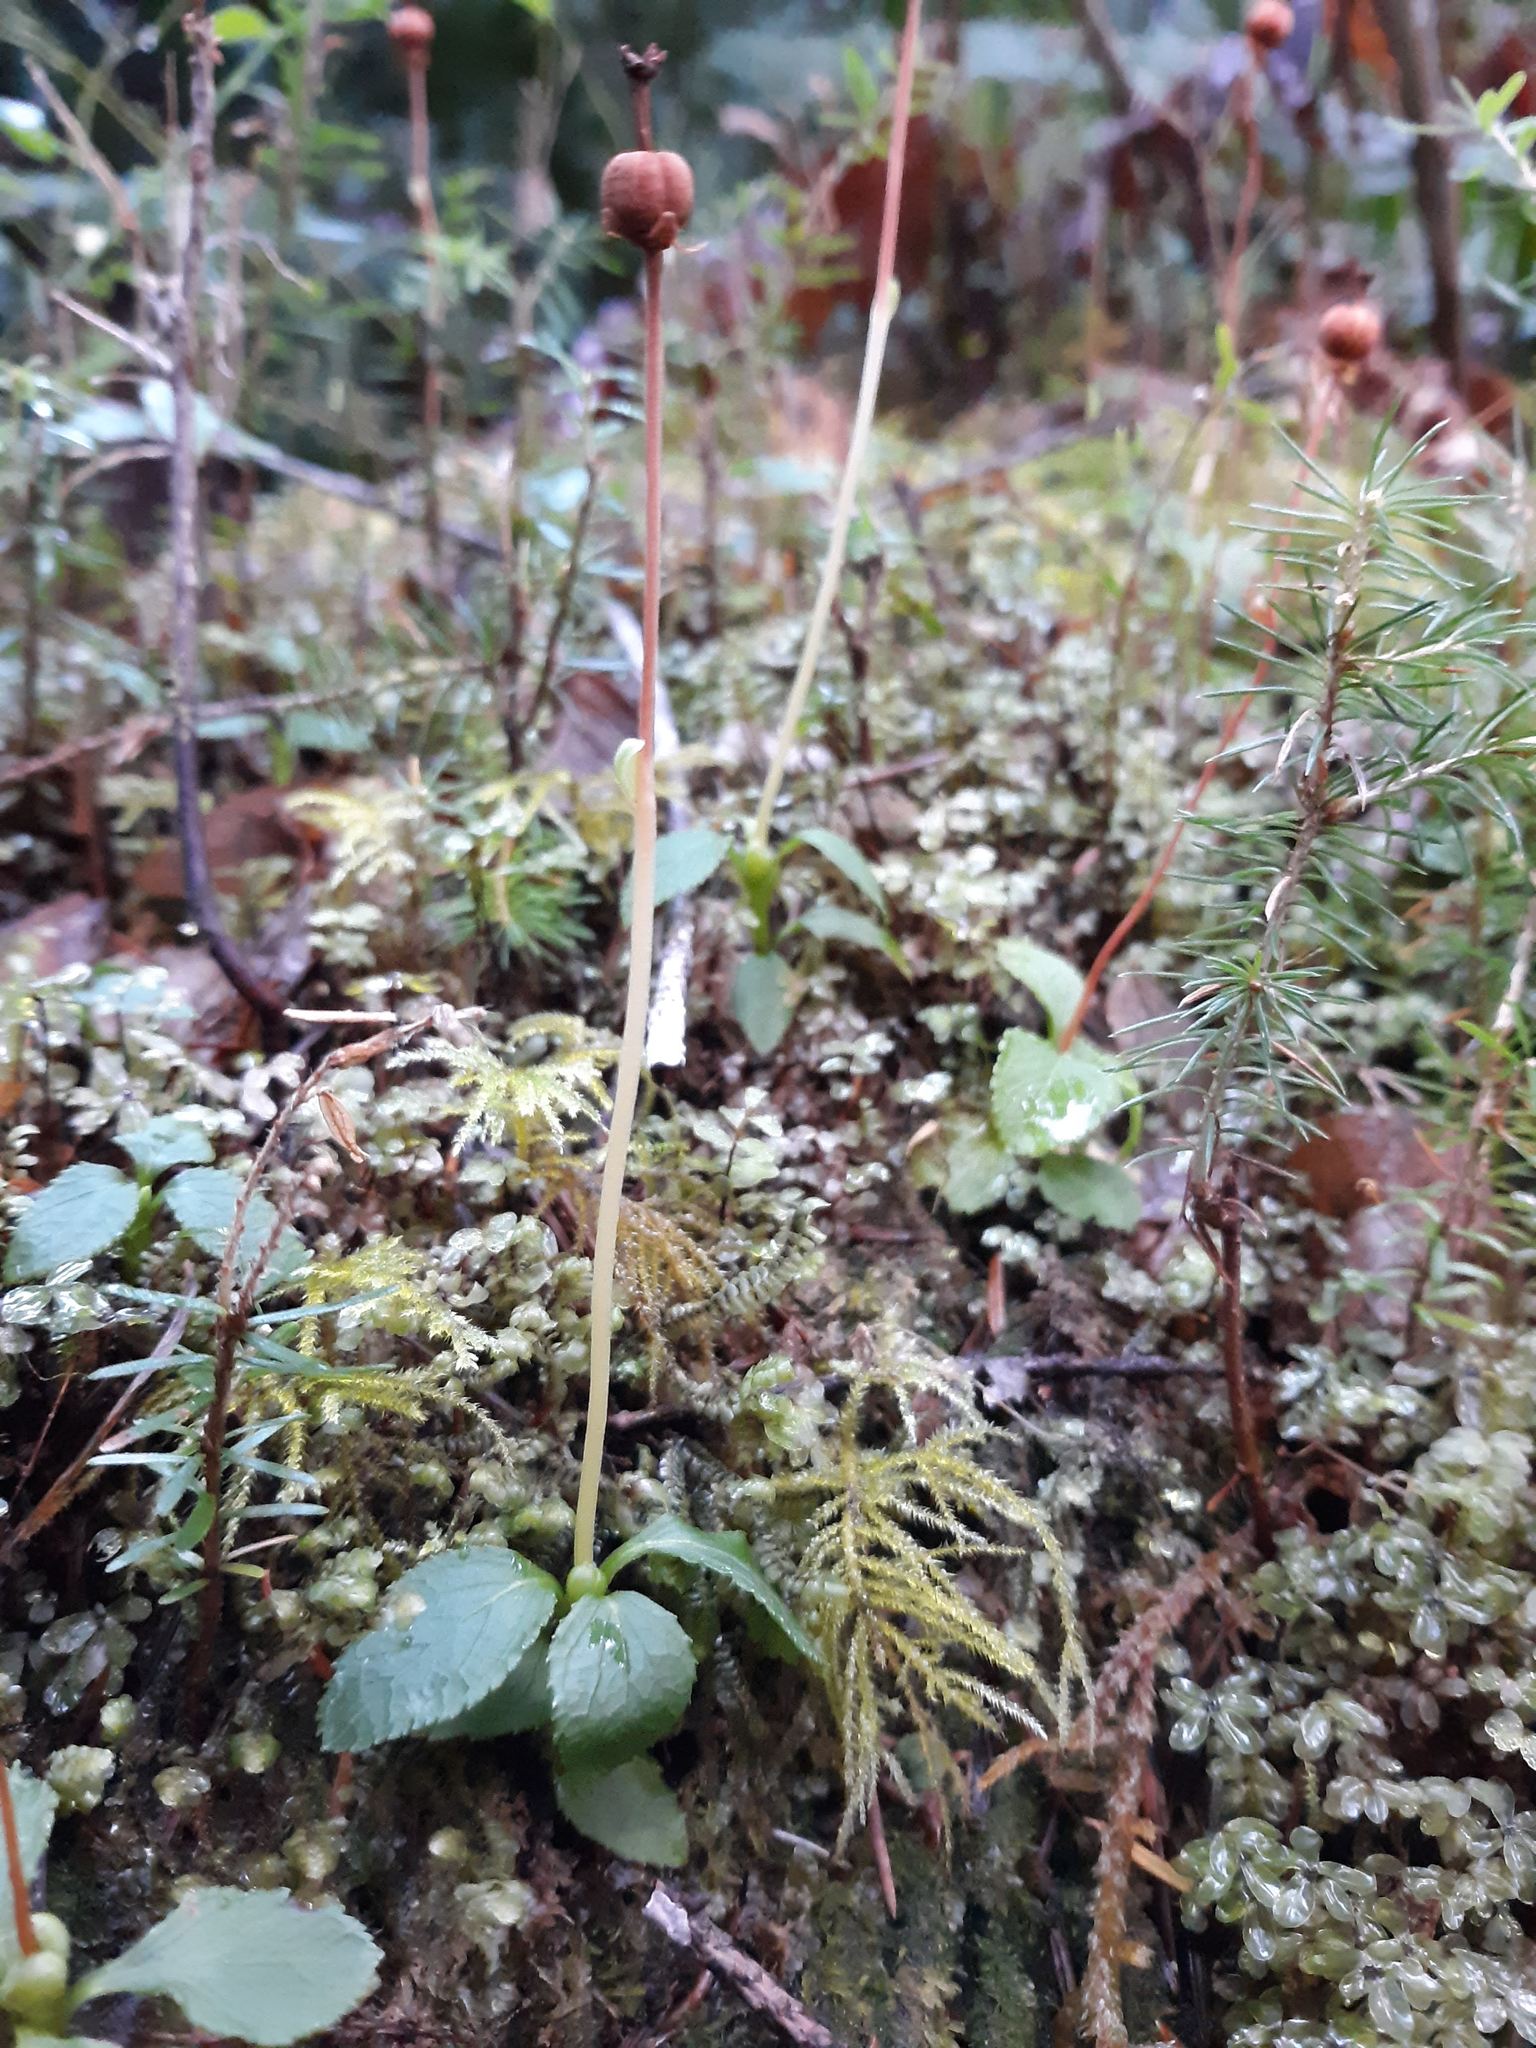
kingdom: Plantae
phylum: Tracheophyta
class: Magnoliopsida
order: Ericales
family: Ericaceae
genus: Moneses
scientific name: Moneses uniflora
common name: One-flowered wintergreen
